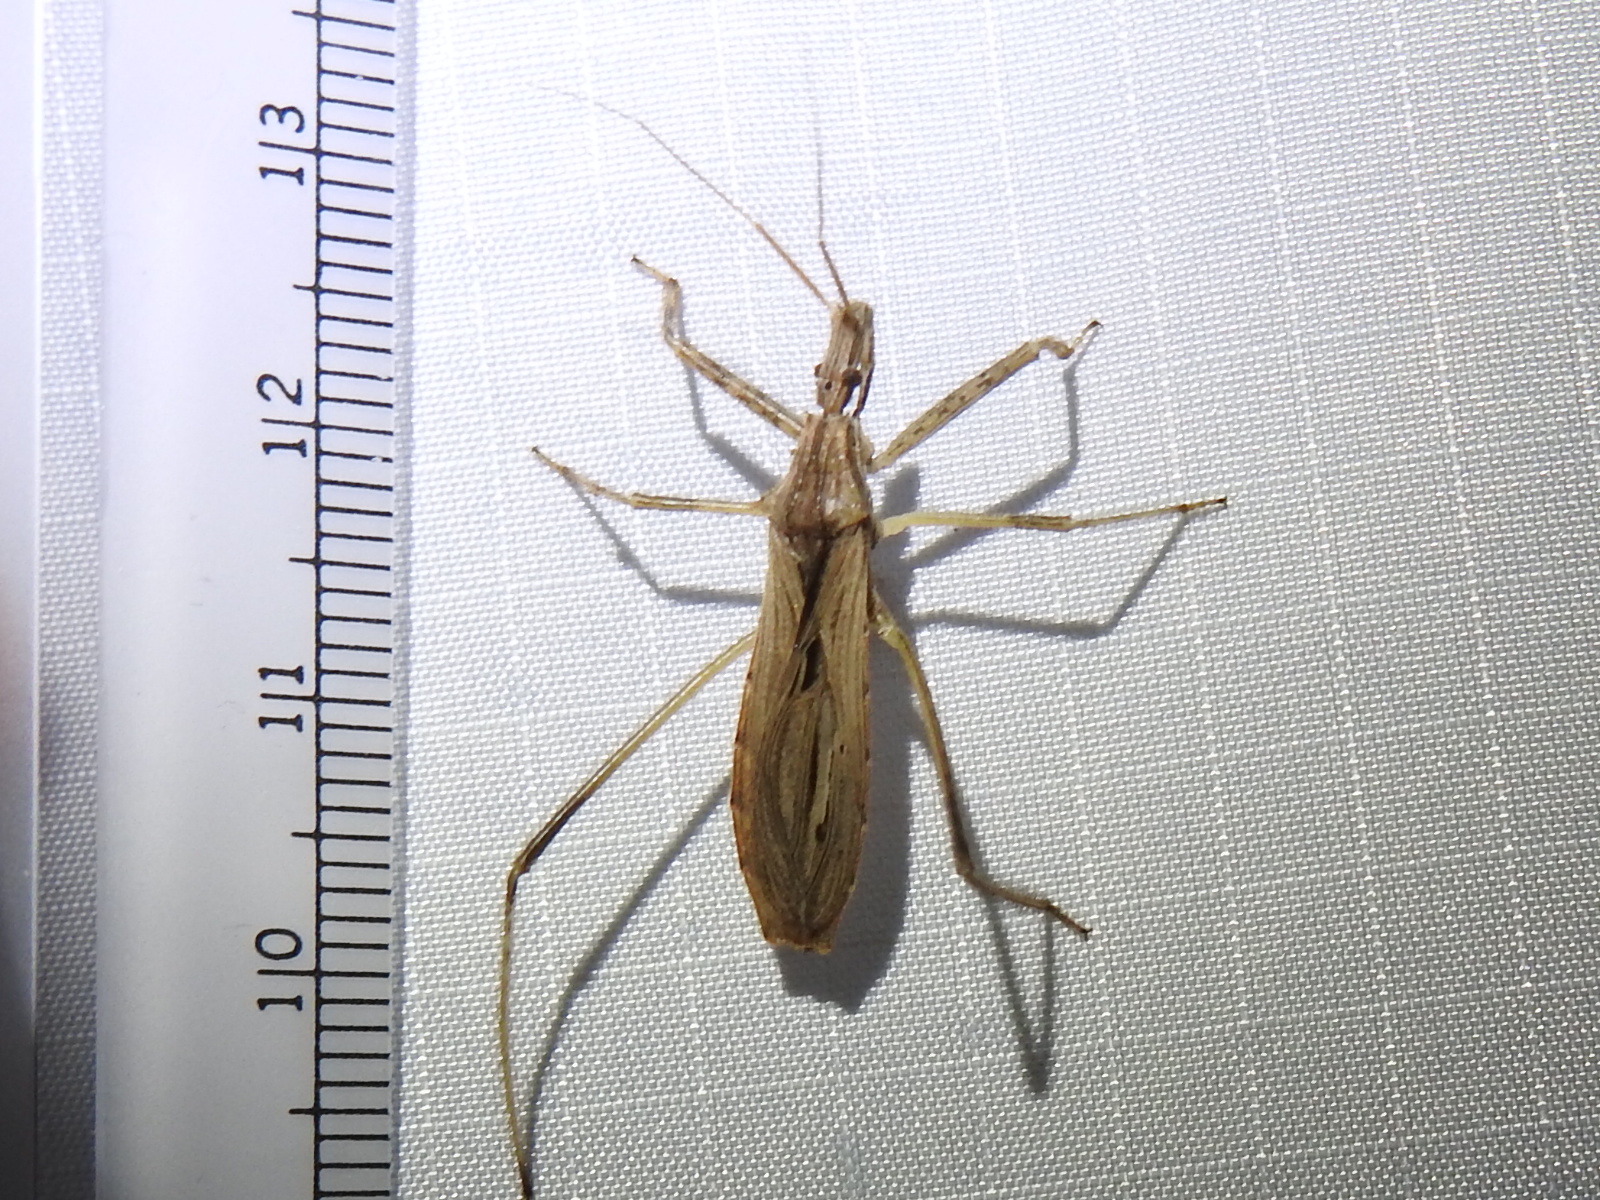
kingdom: Animalia
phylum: Arthropoda
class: Insecta
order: Hemiptera
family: Reduviidae
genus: Stenopoda
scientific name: Stenopoda spinulosa
